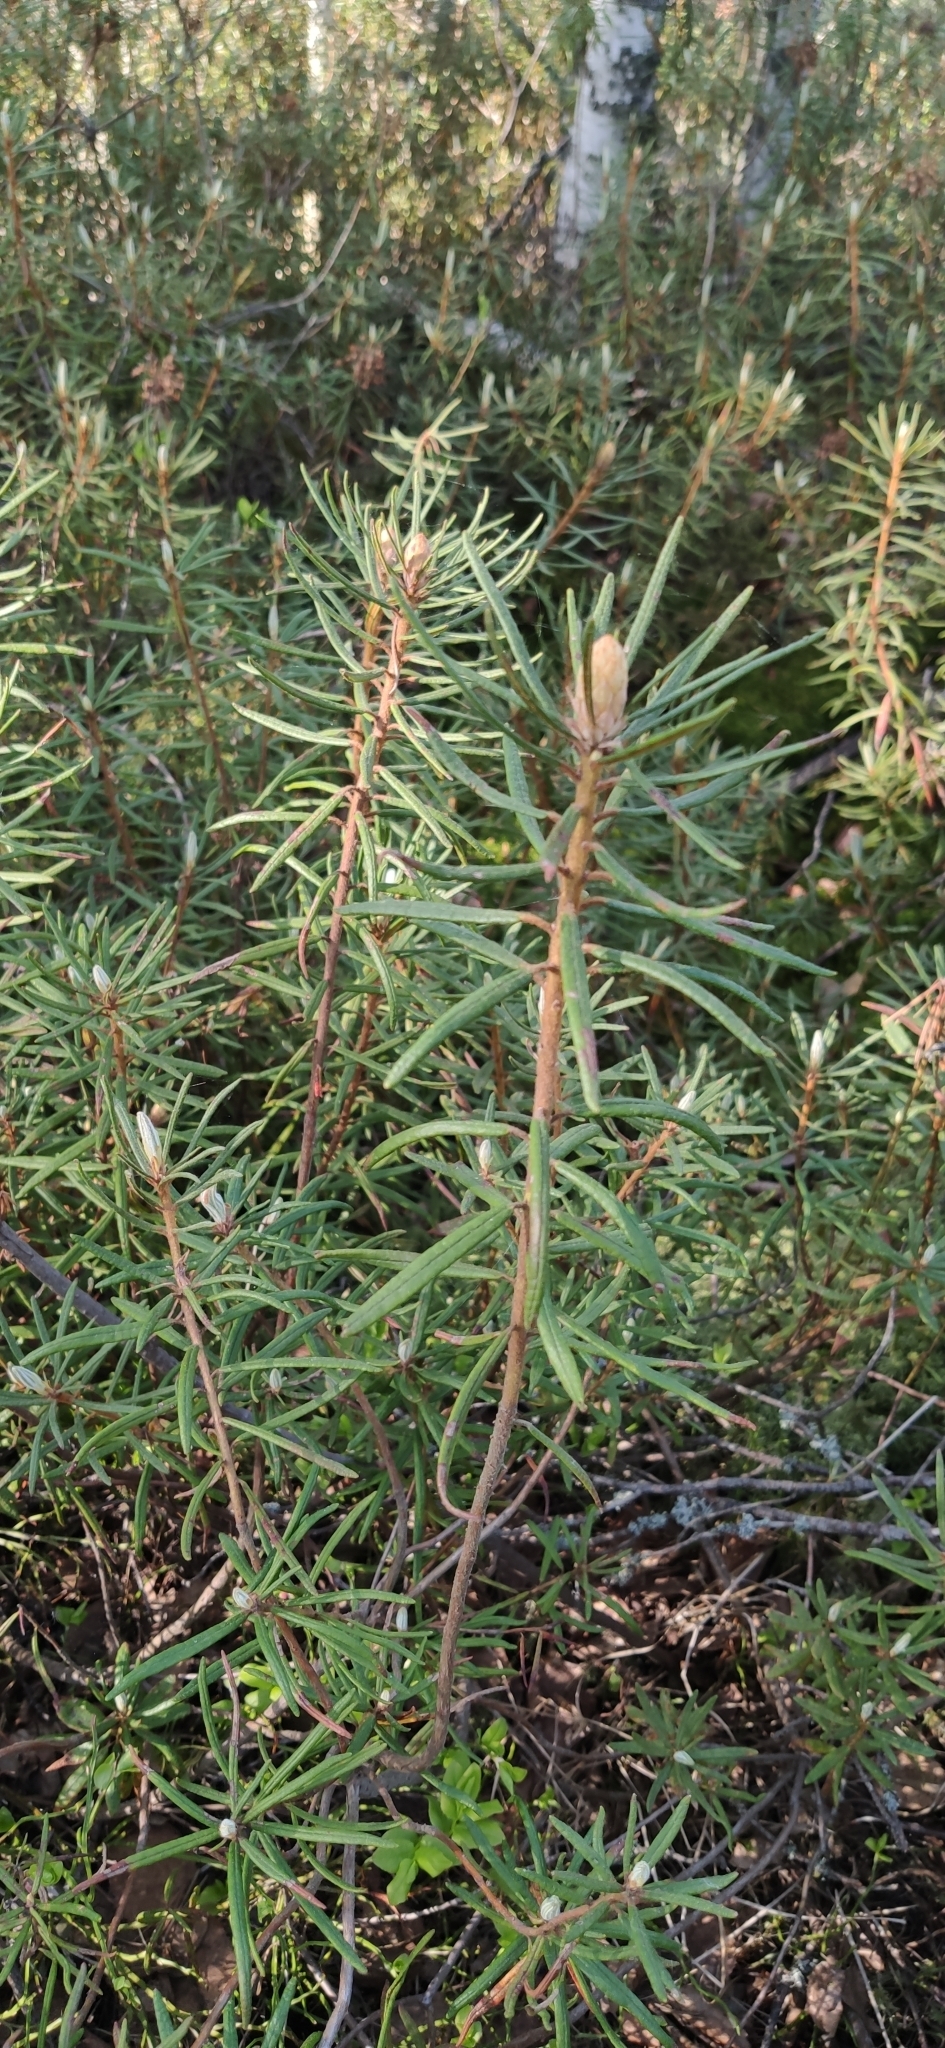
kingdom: Plantae
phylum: Tracheophyta
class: Magnoliopsida
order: Ericales
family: Ericaceae
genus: Rhododendron
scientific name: Rhododendron tomentosum
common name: Marsh labrador tea
